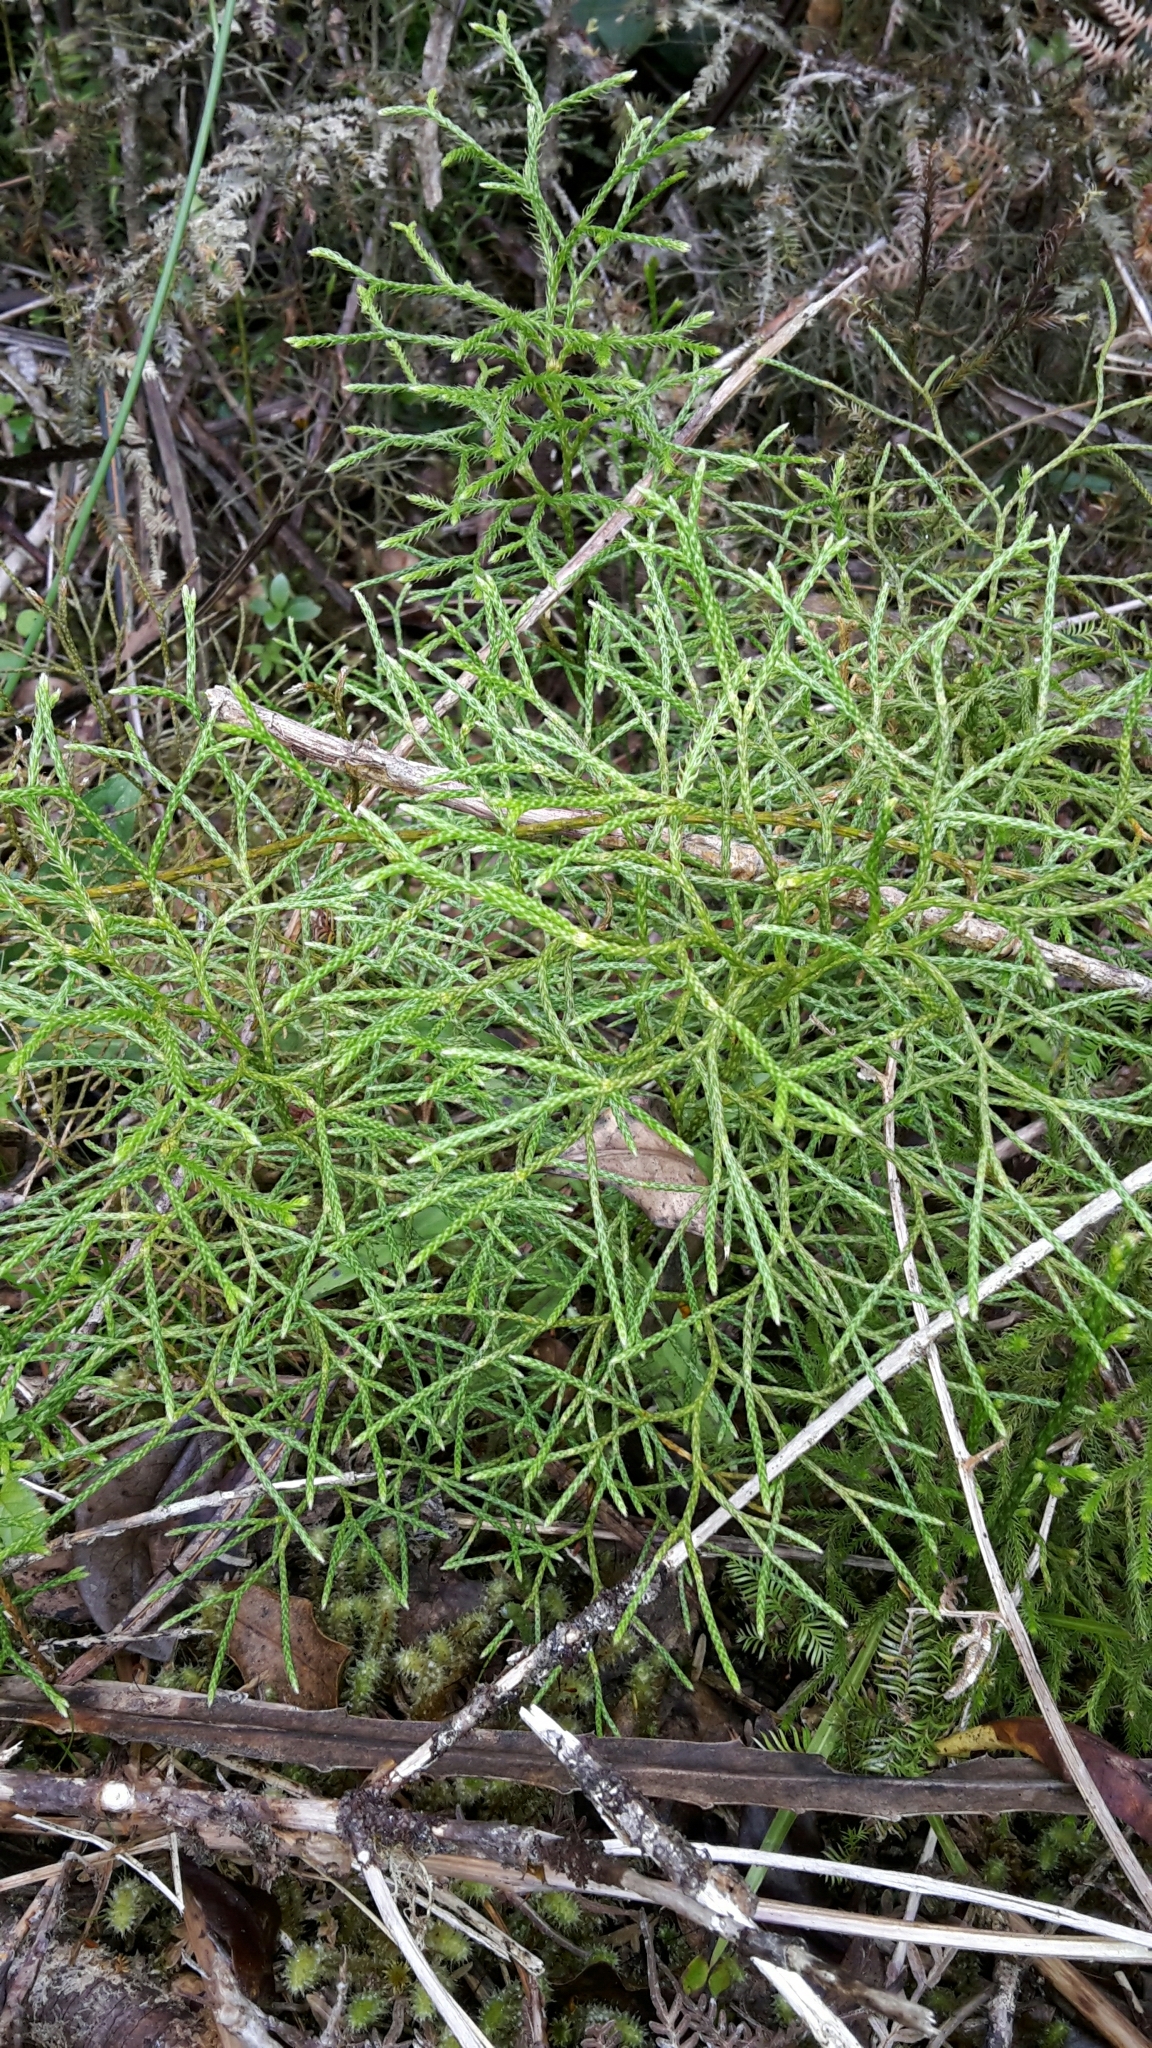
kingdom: Plantae
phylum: Tracheophyta
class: Lycopodiopsida
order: Lycopodiales
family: Lycopodiaceae
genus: Pseudolycopodium
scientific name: Pseudolycopodium densum
